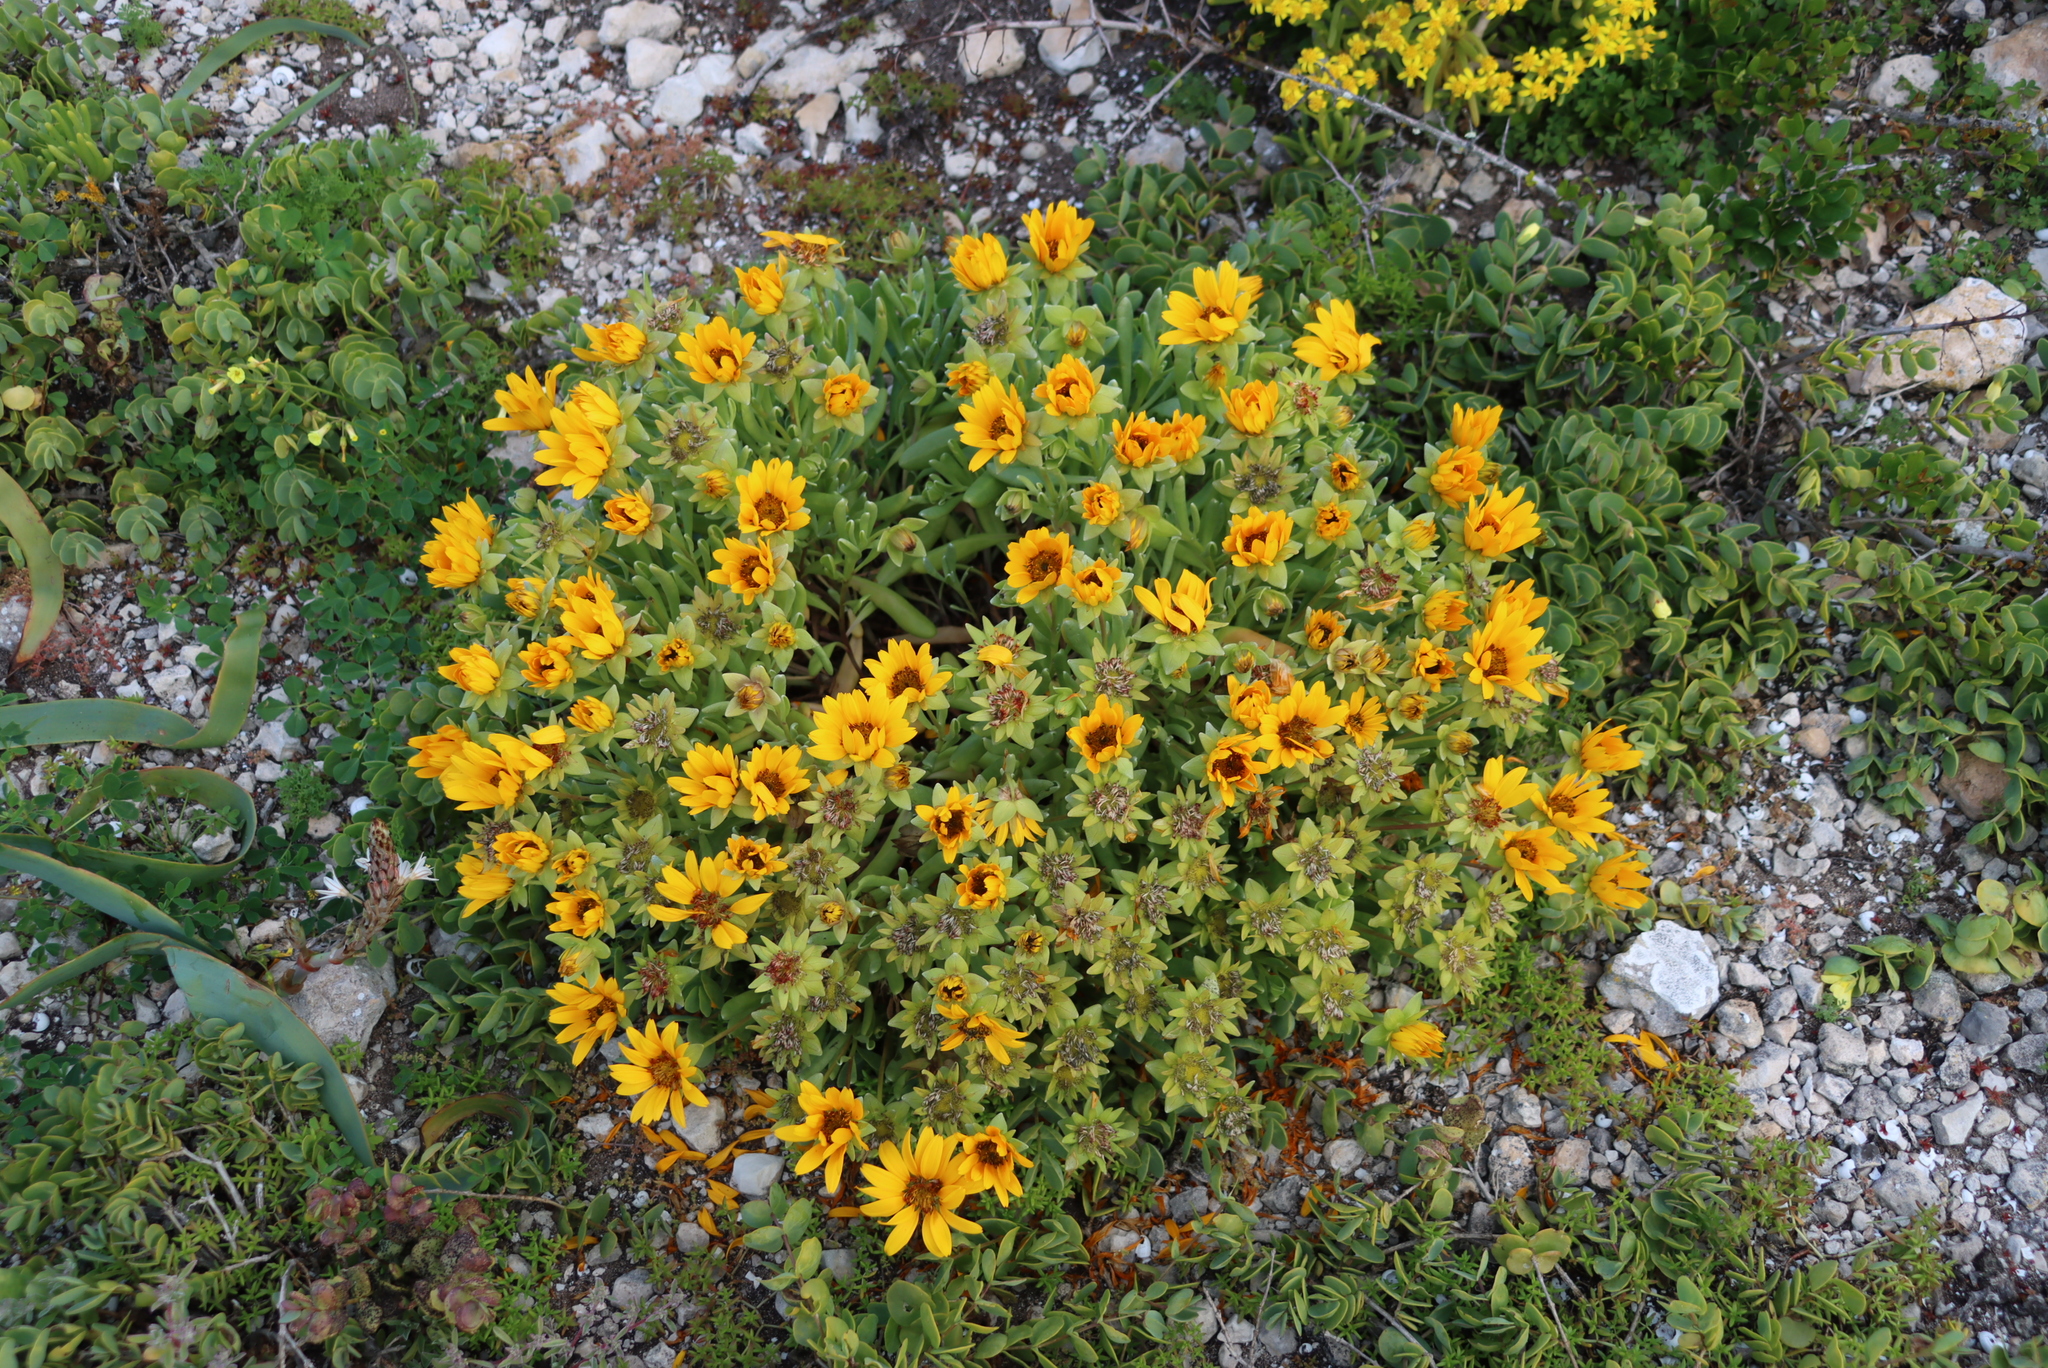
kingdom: Plantae
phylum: Tracheophyta
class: Magnoliopsida
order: Asterales
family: Asteraceae
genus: Didelta
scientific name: Didelta carnosa
